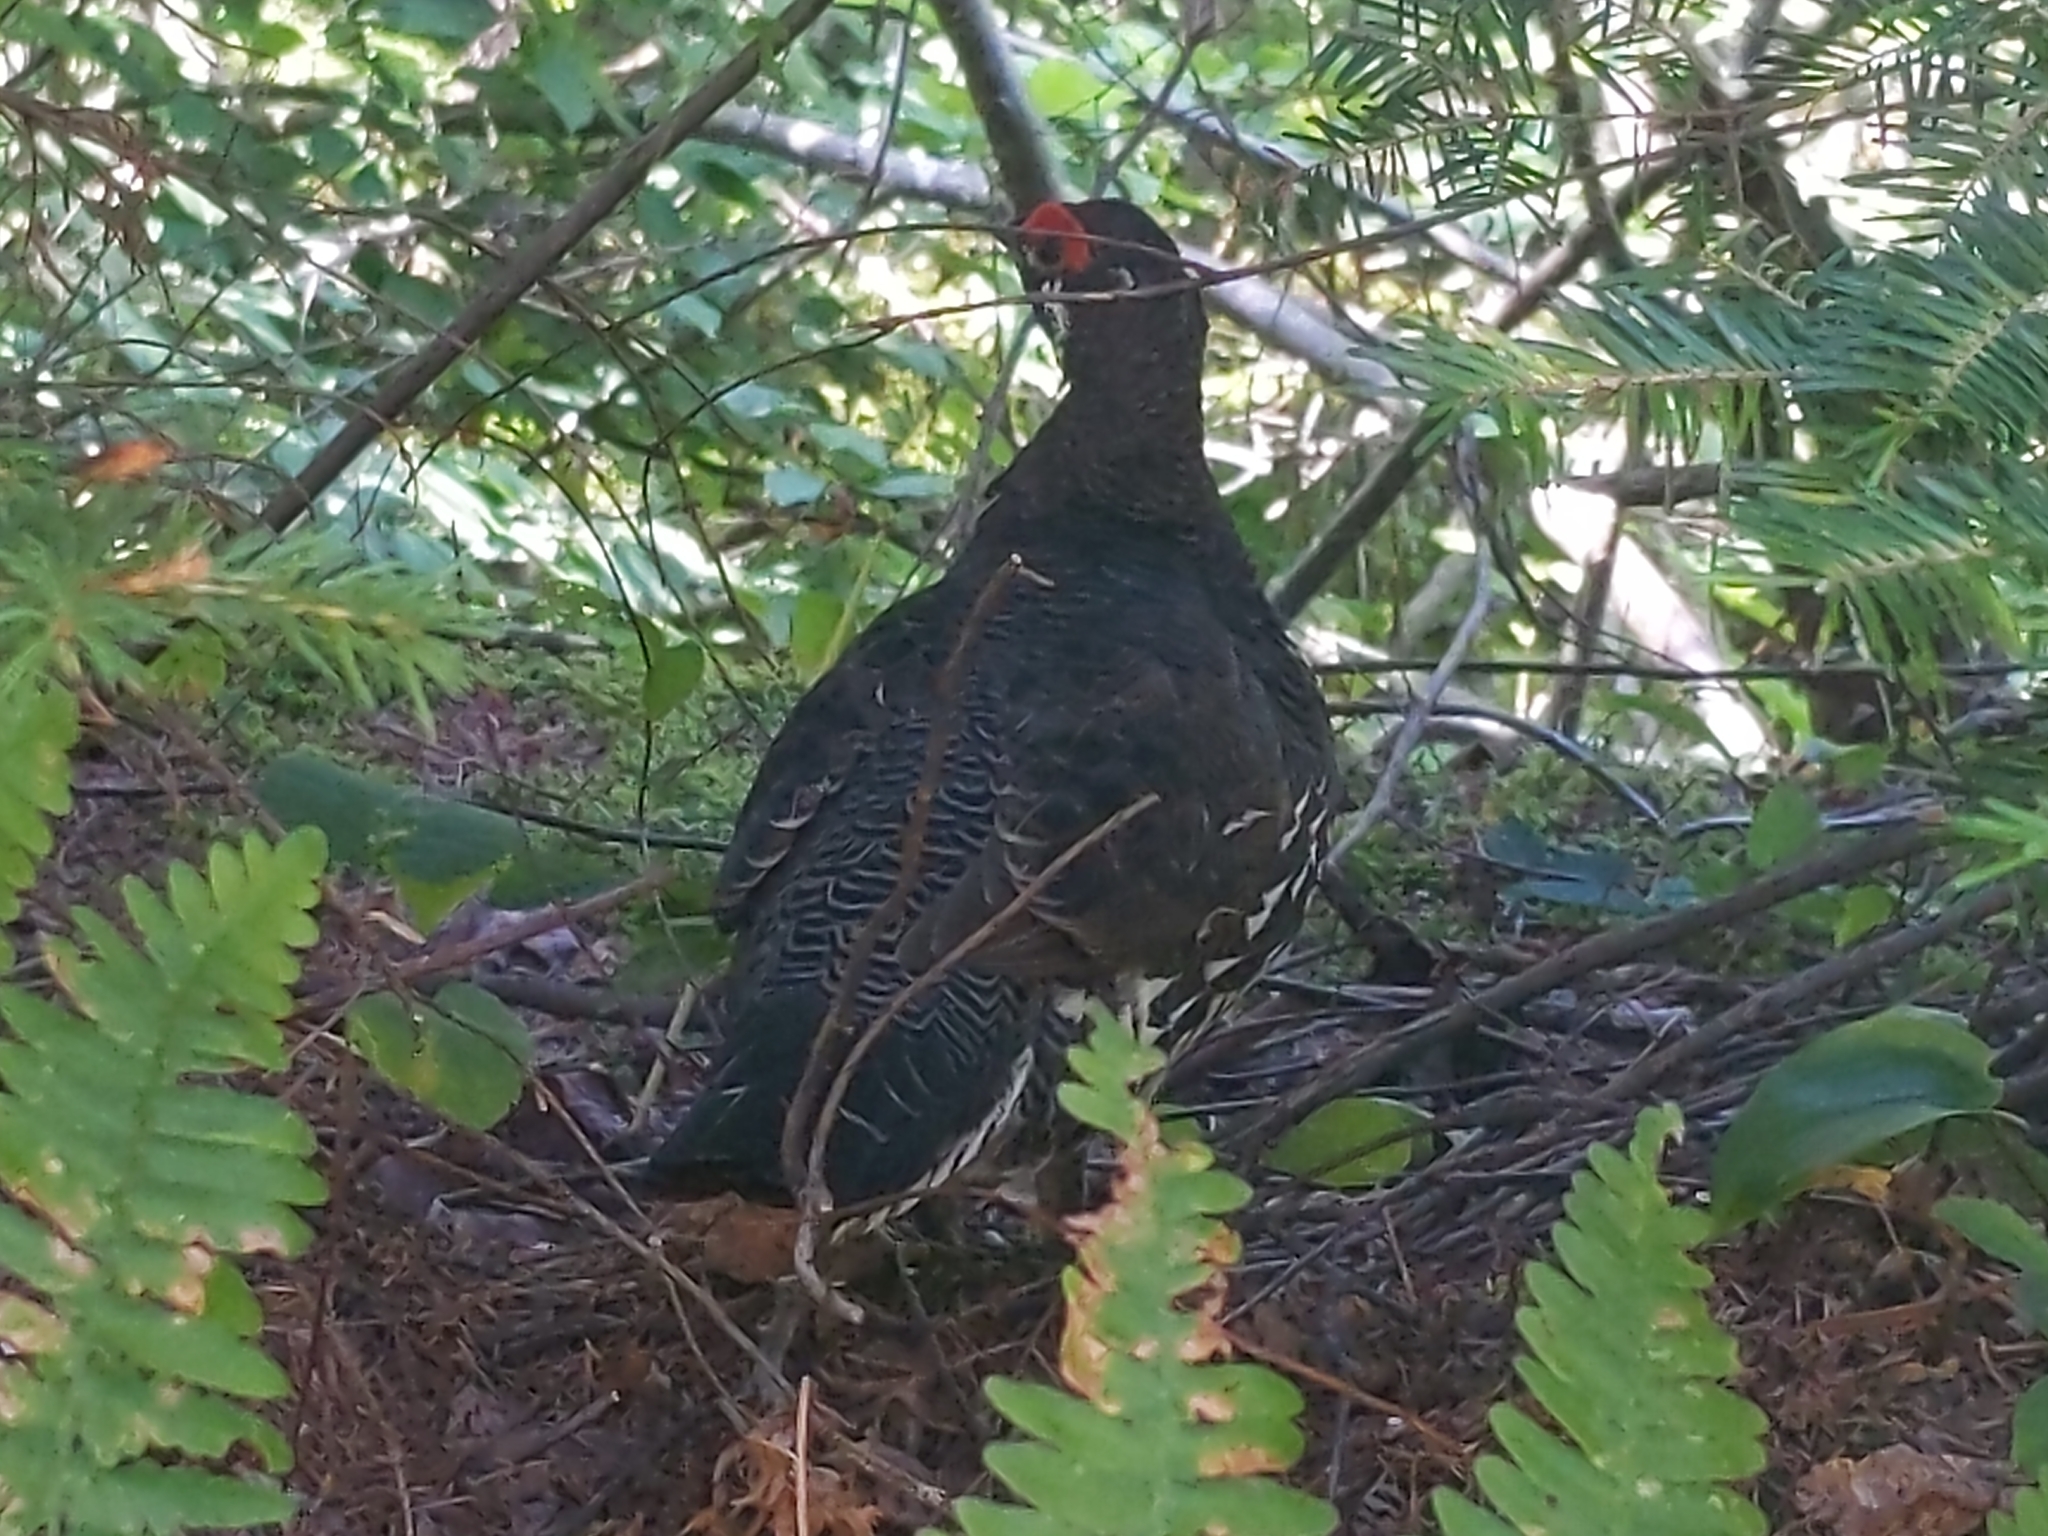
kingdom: Animalia
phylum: Chordata
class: Aves
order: Galliformes
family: Phasianidae
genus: Canachites
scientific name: Canachites canadensis
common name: Spruce grouse
